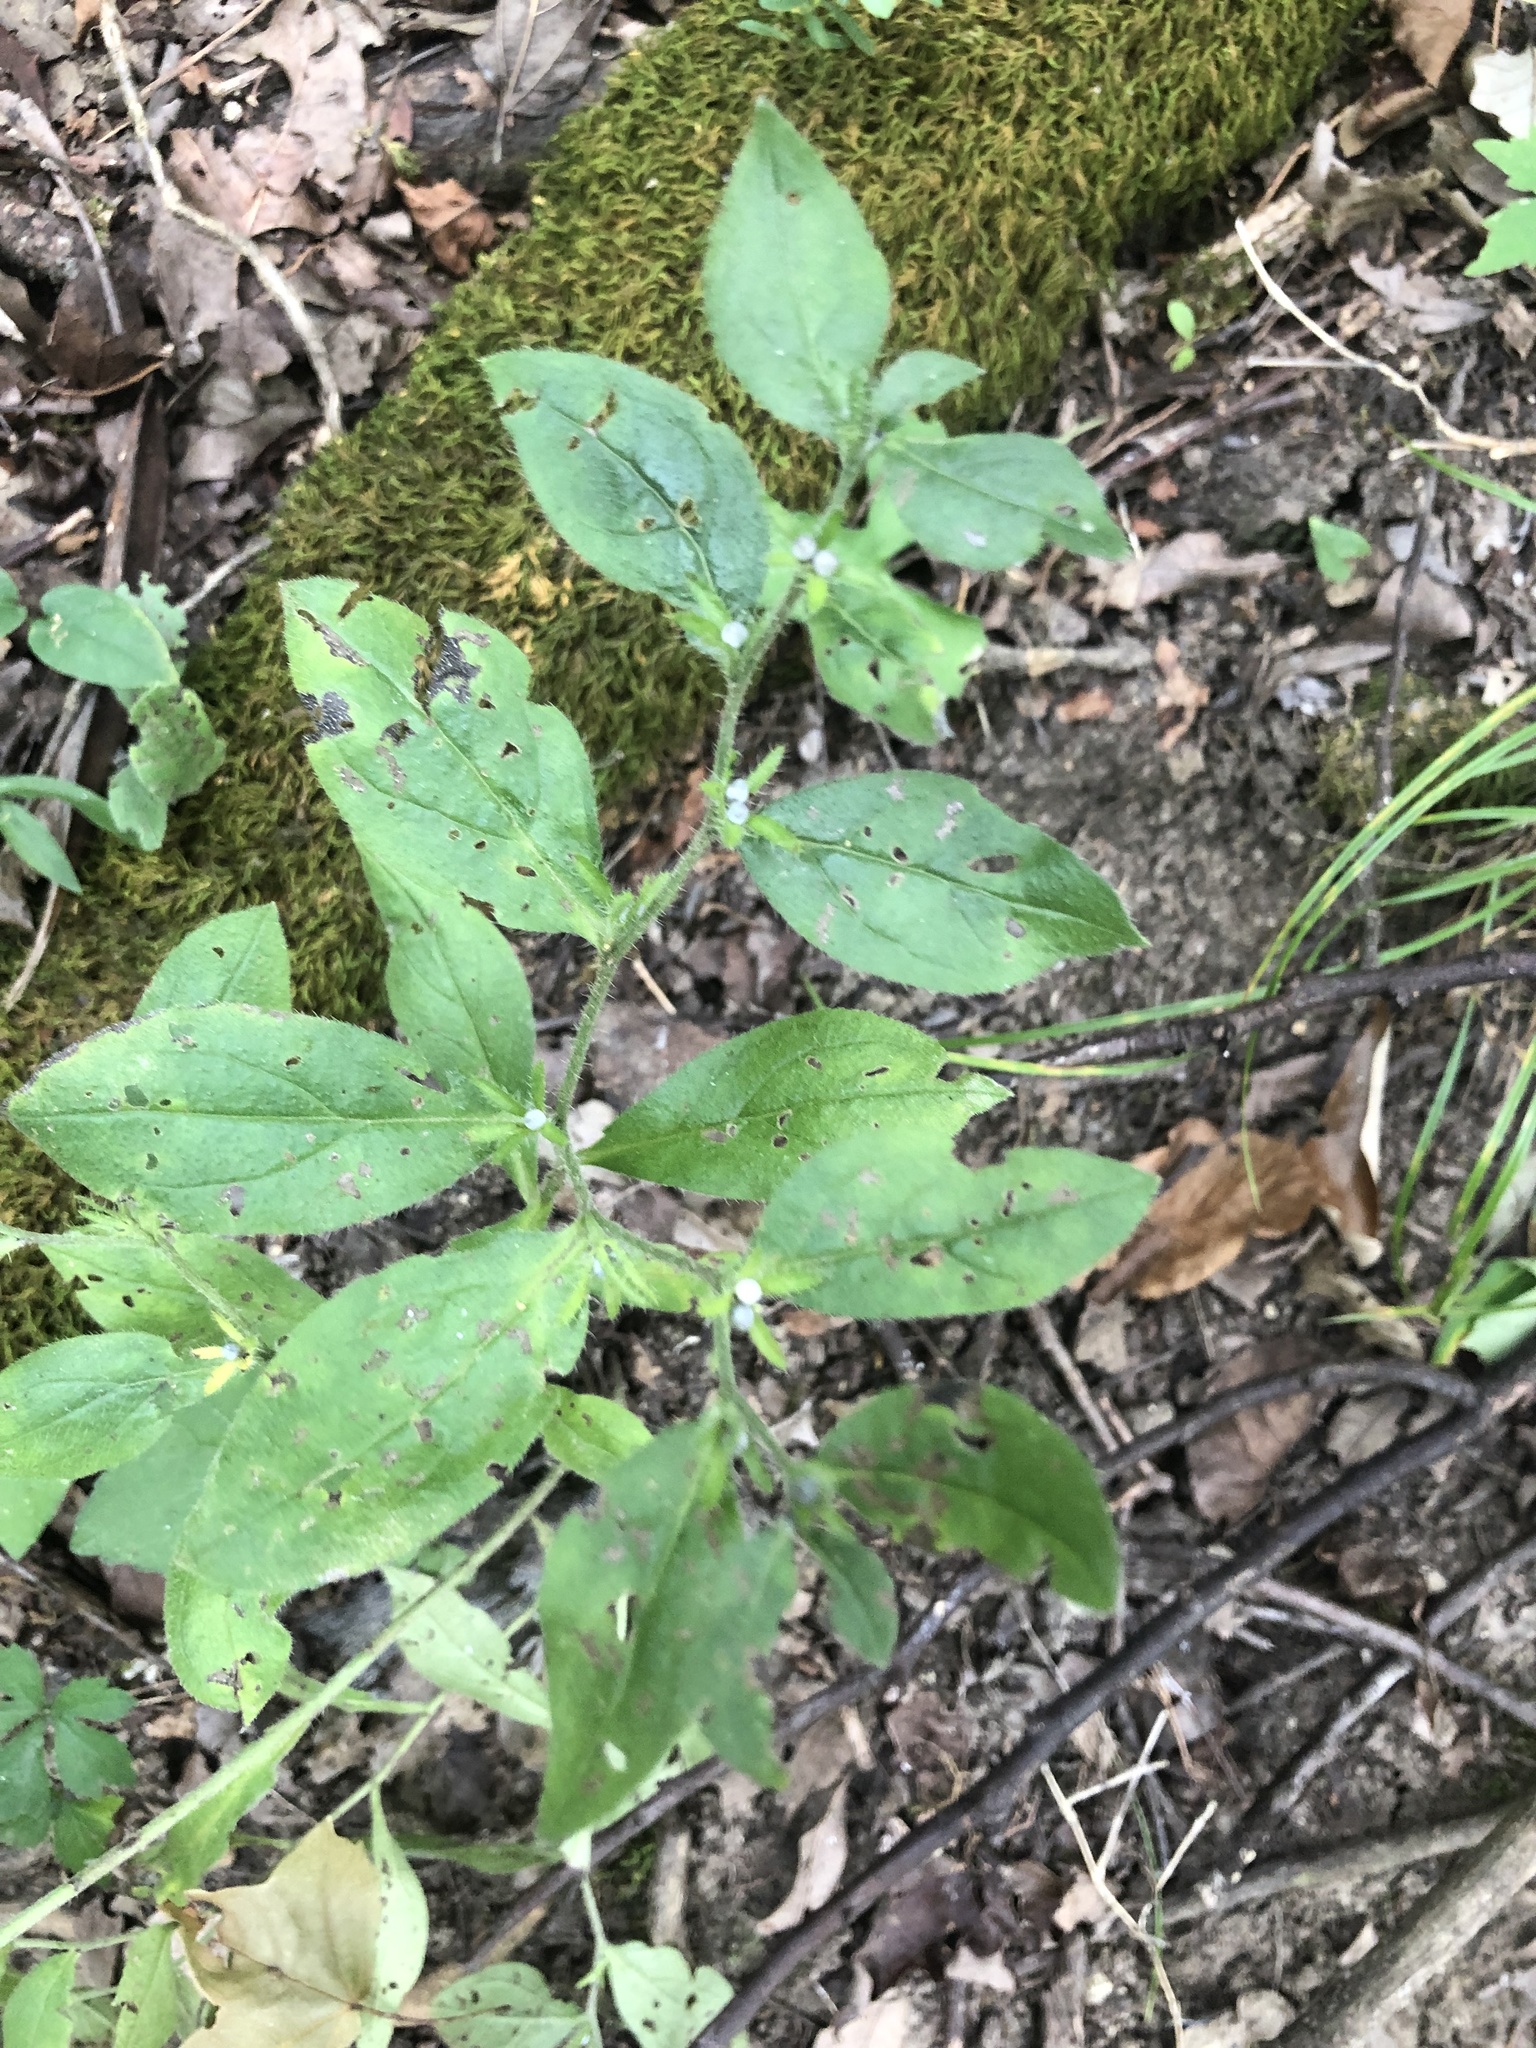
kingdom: Plantae
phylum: Tracheophyta
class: Magnoliopsida
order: Boraginales
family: Boraginaceae
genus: Lithospermum
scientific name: Lithospermum tuberosum
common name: Southern stoneseed
